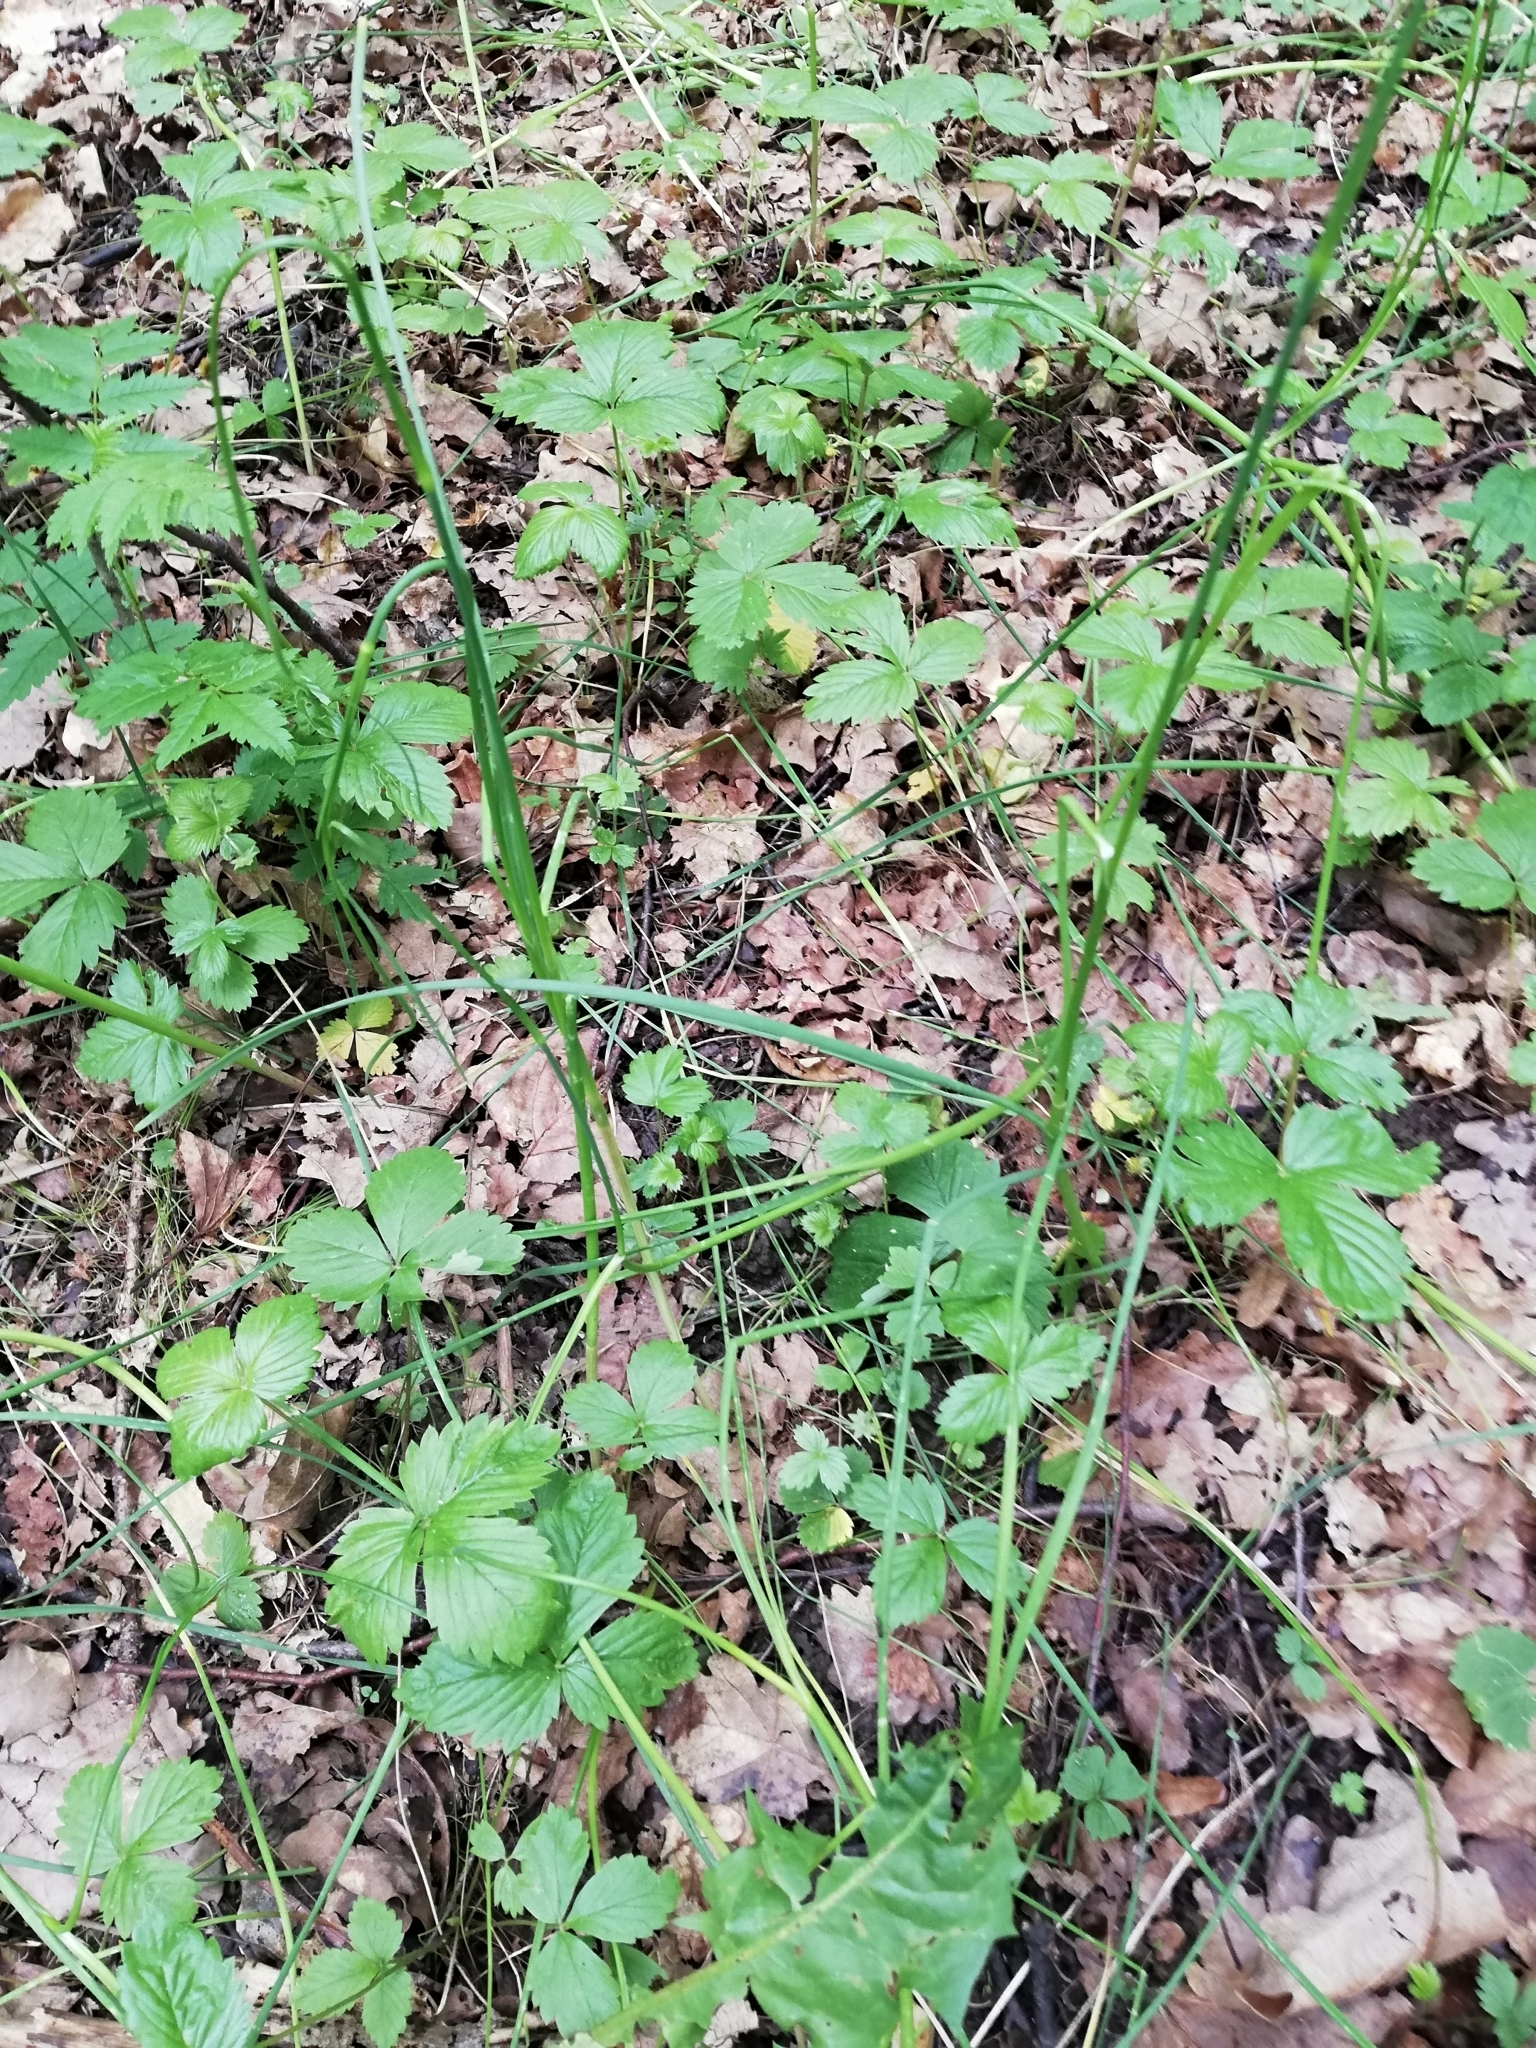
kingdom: Plantae
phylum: Tracheophyta
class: Liliopsida
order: Asparagales
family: Amaryllidaceae
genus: Allium
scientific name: Allium oleraceum
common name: Field garlic
